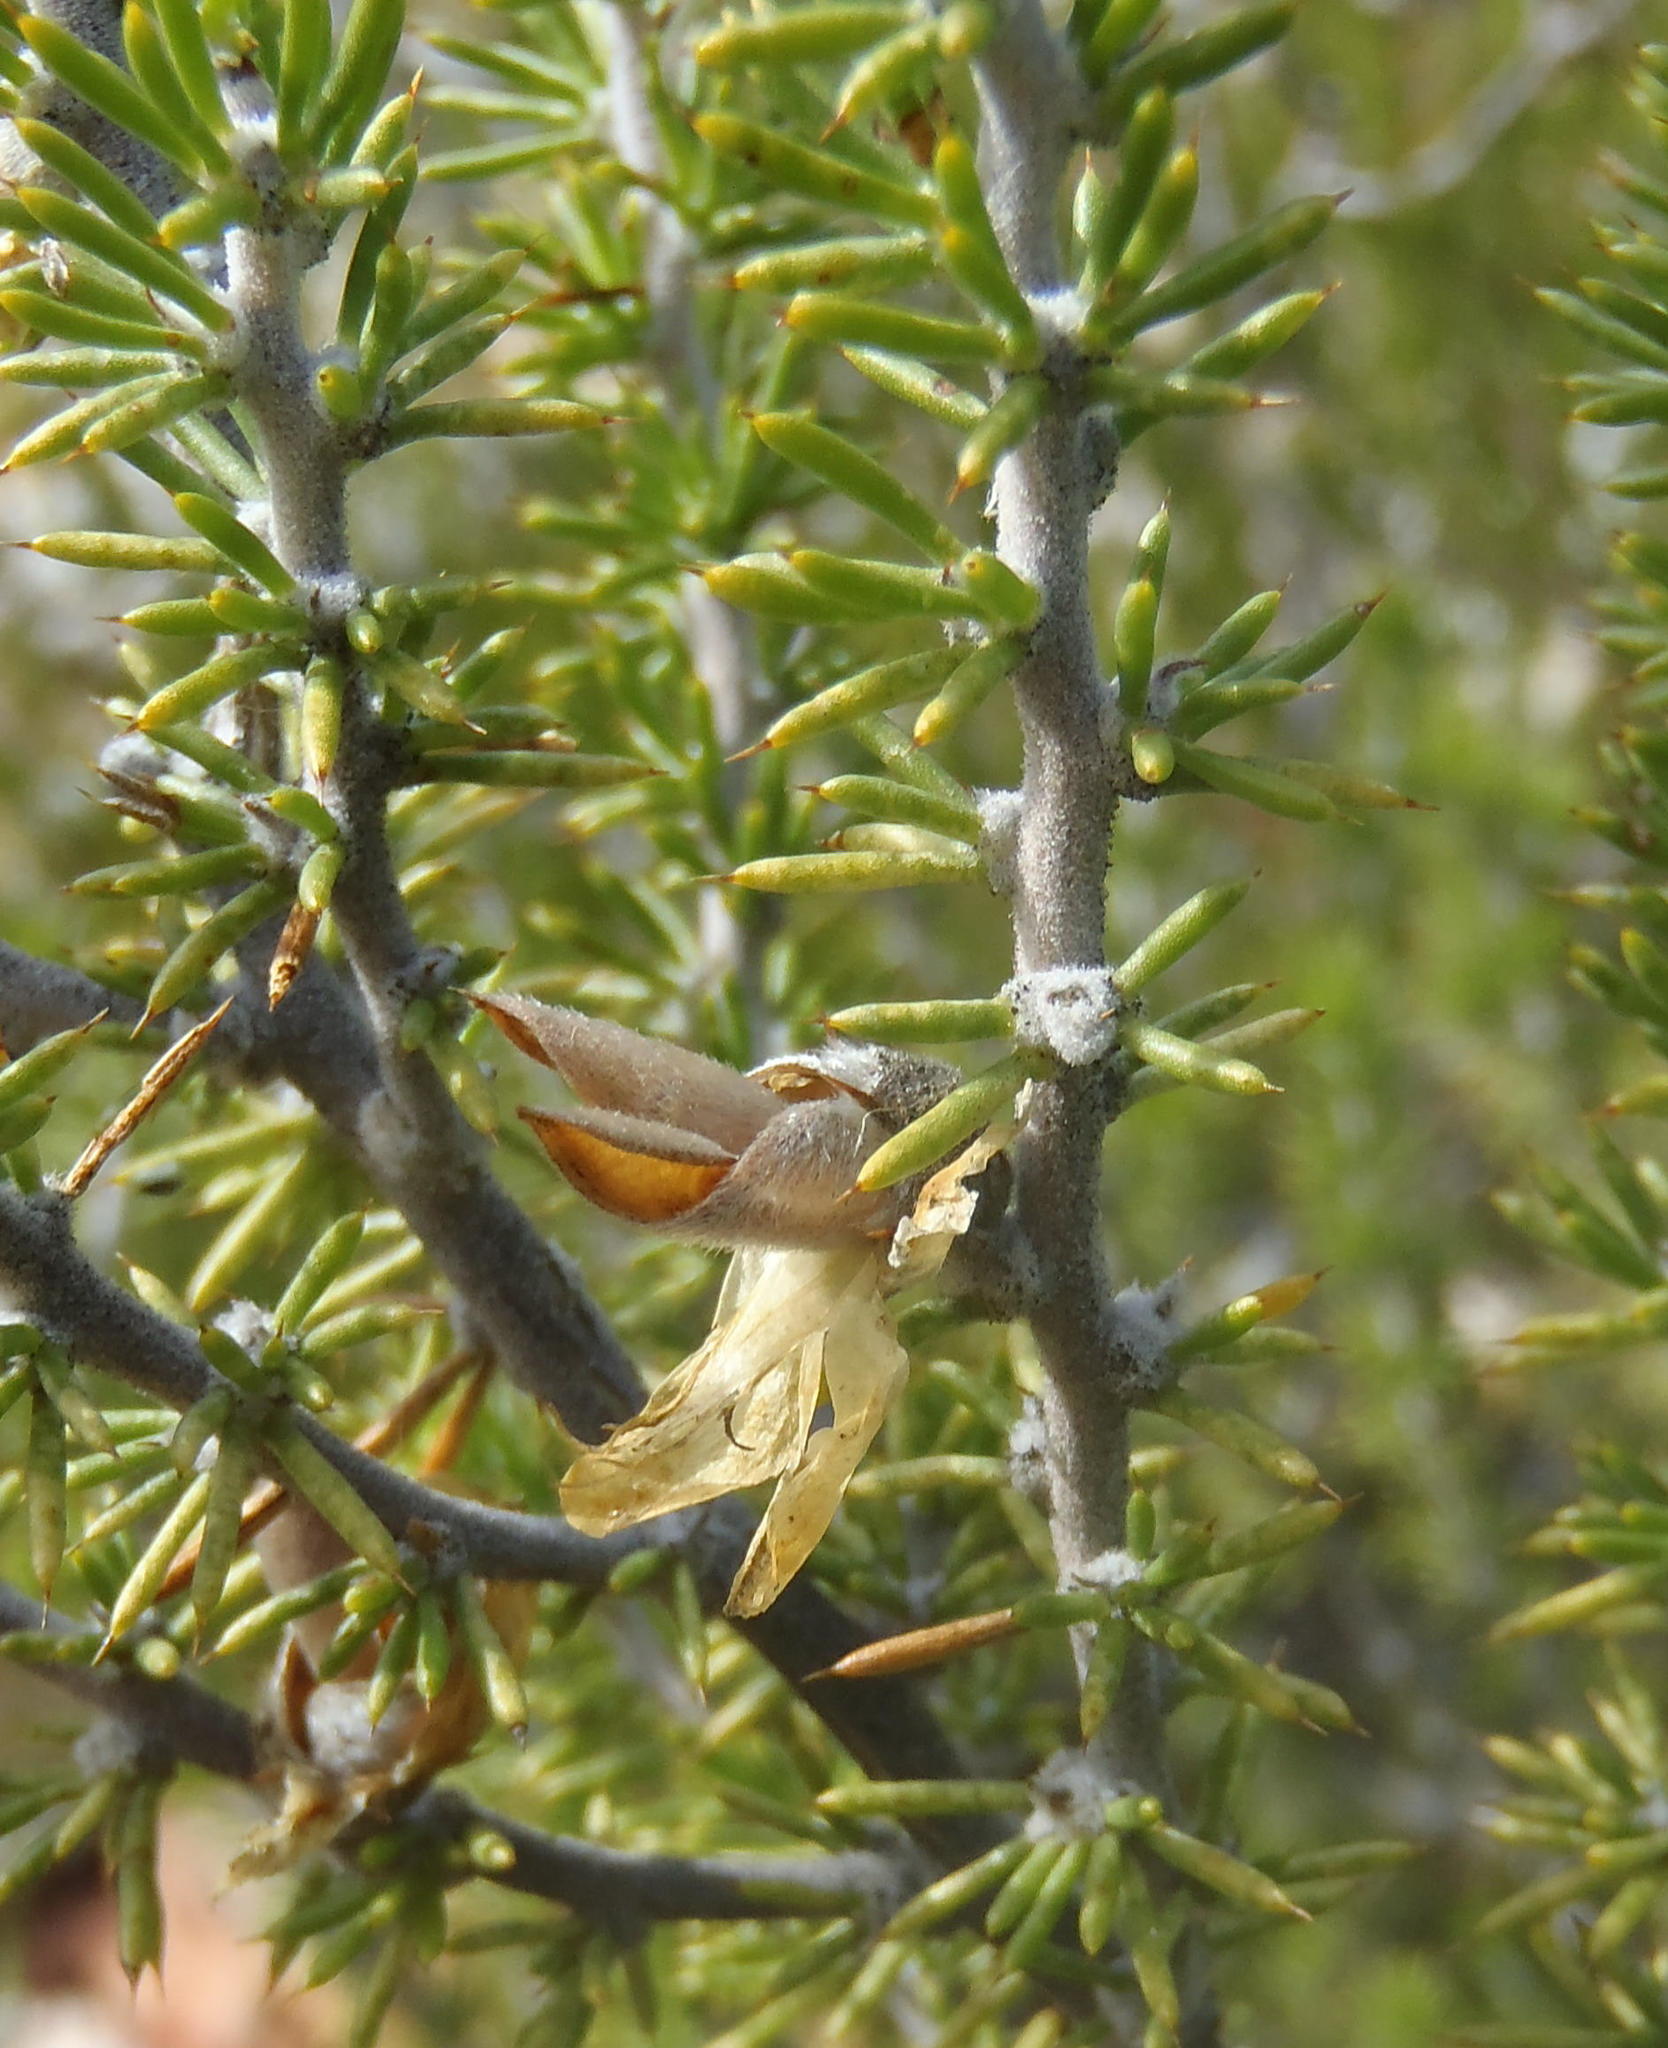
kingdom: Plantae
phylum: Tracheophyta
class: Magnoliopsida
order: Fabales
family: Fabaceae
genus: Aspalathus
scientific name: Aspalathus hirta
